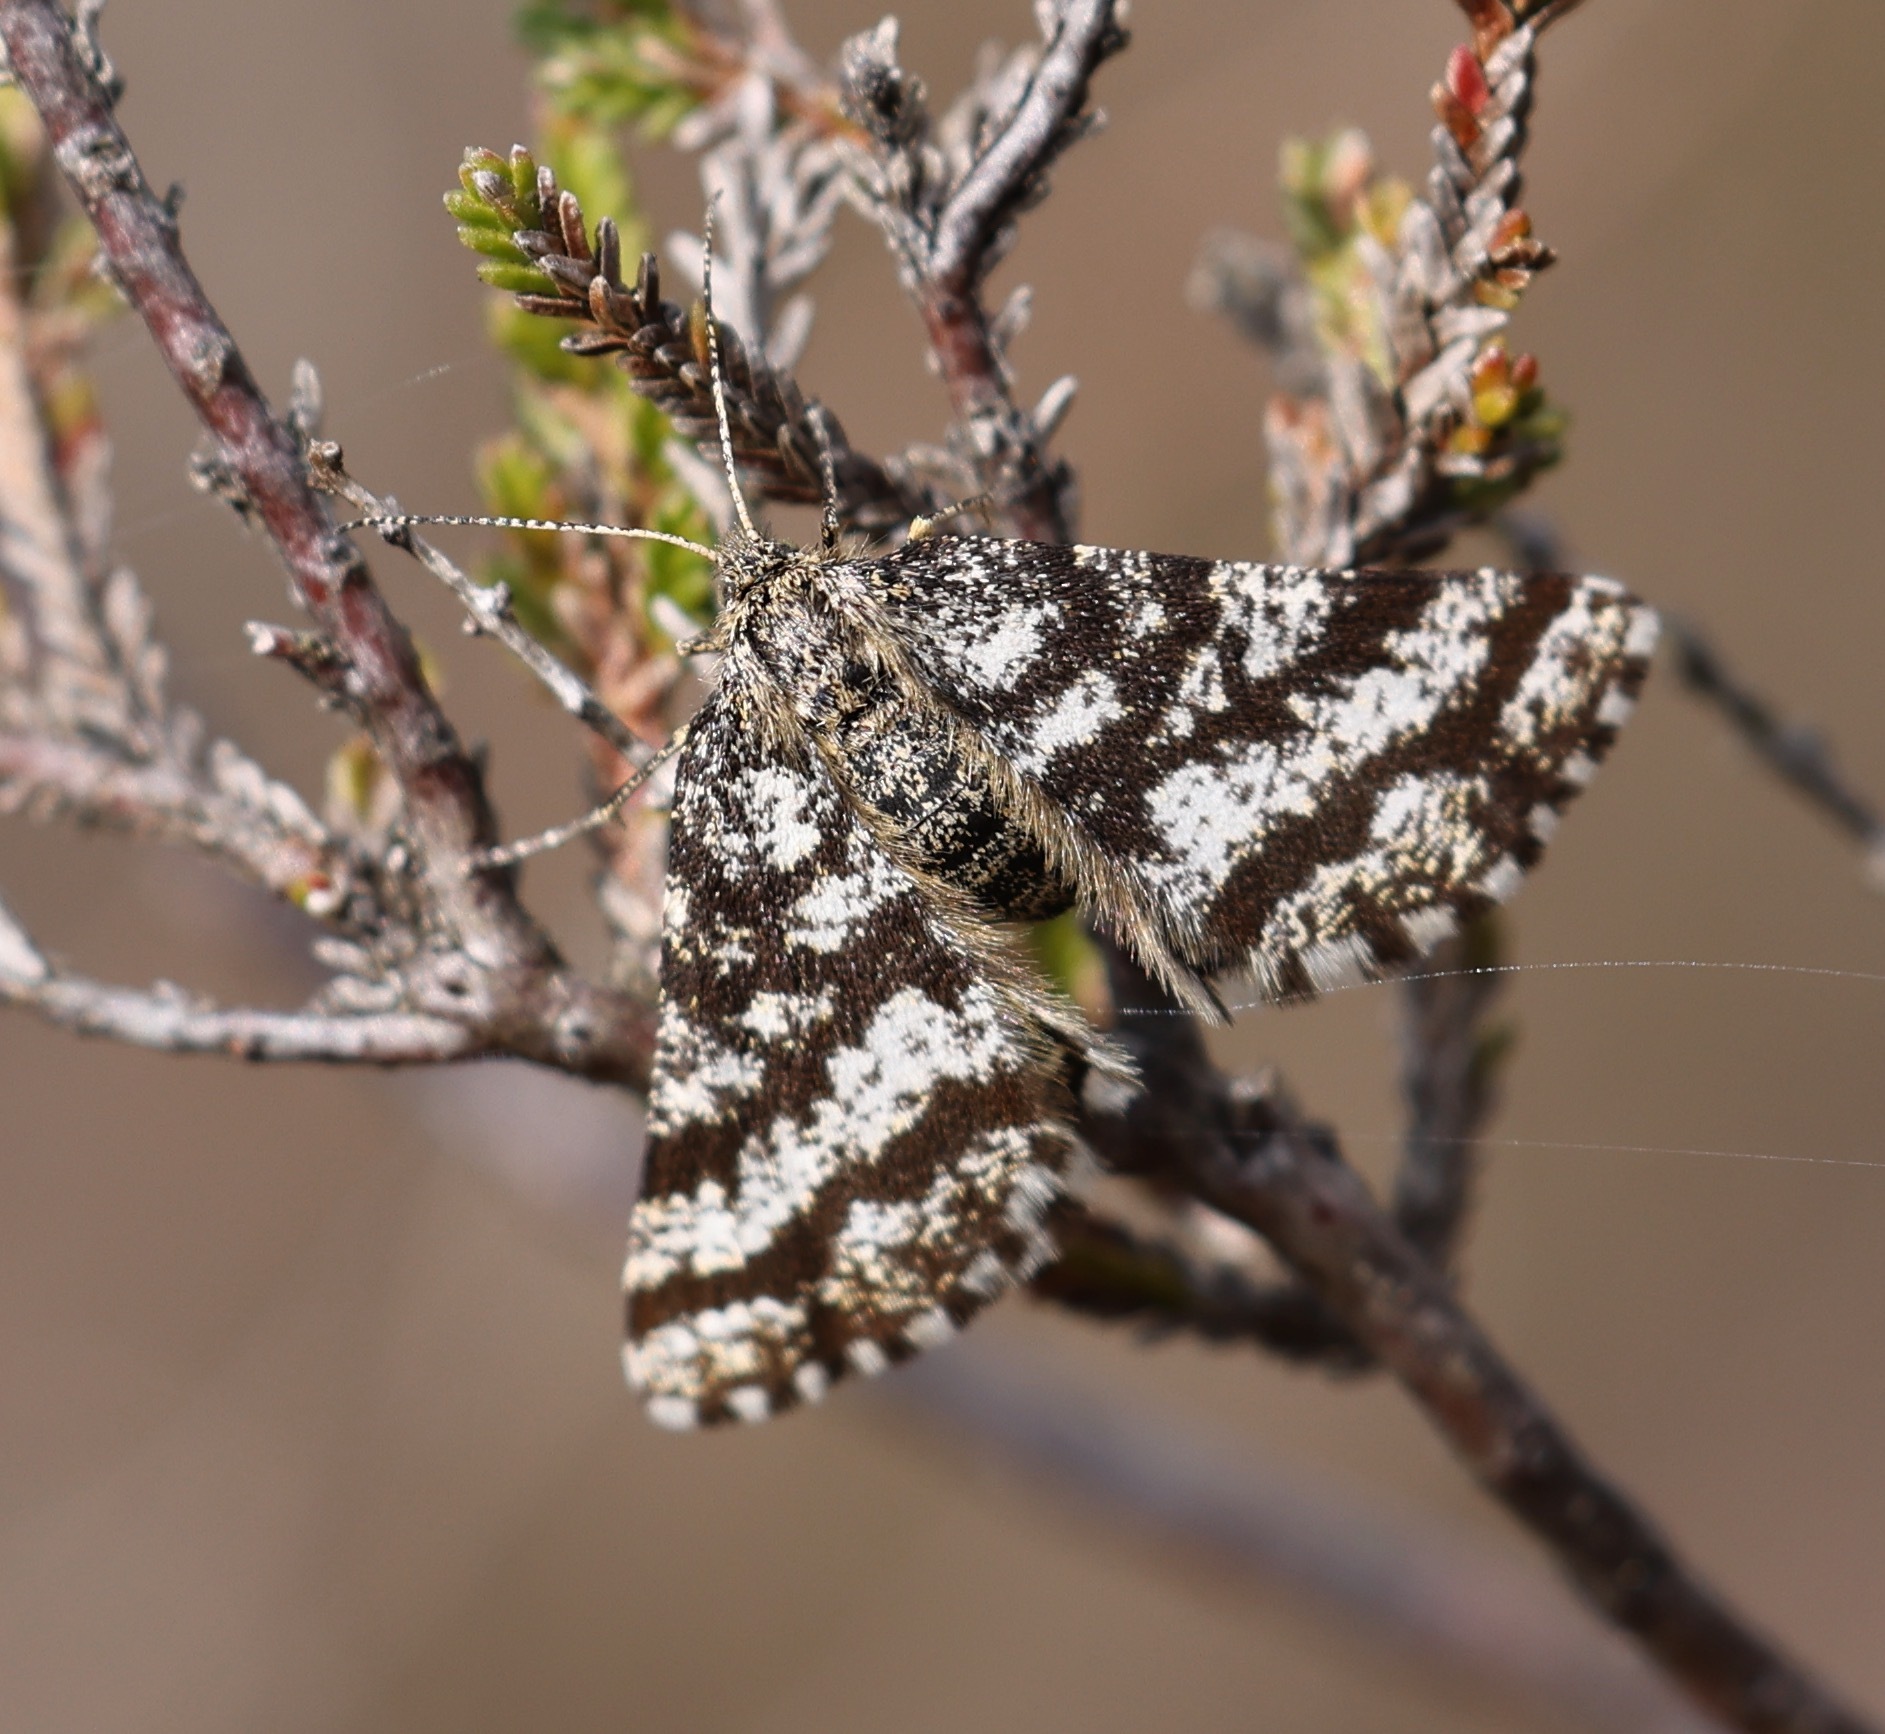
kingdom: Animalia
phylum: Arthropoda
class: Insecta
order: Lepidoptera
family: Geometridae
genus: Ematurga
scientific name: Ematurga atomaria
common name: Common heath
